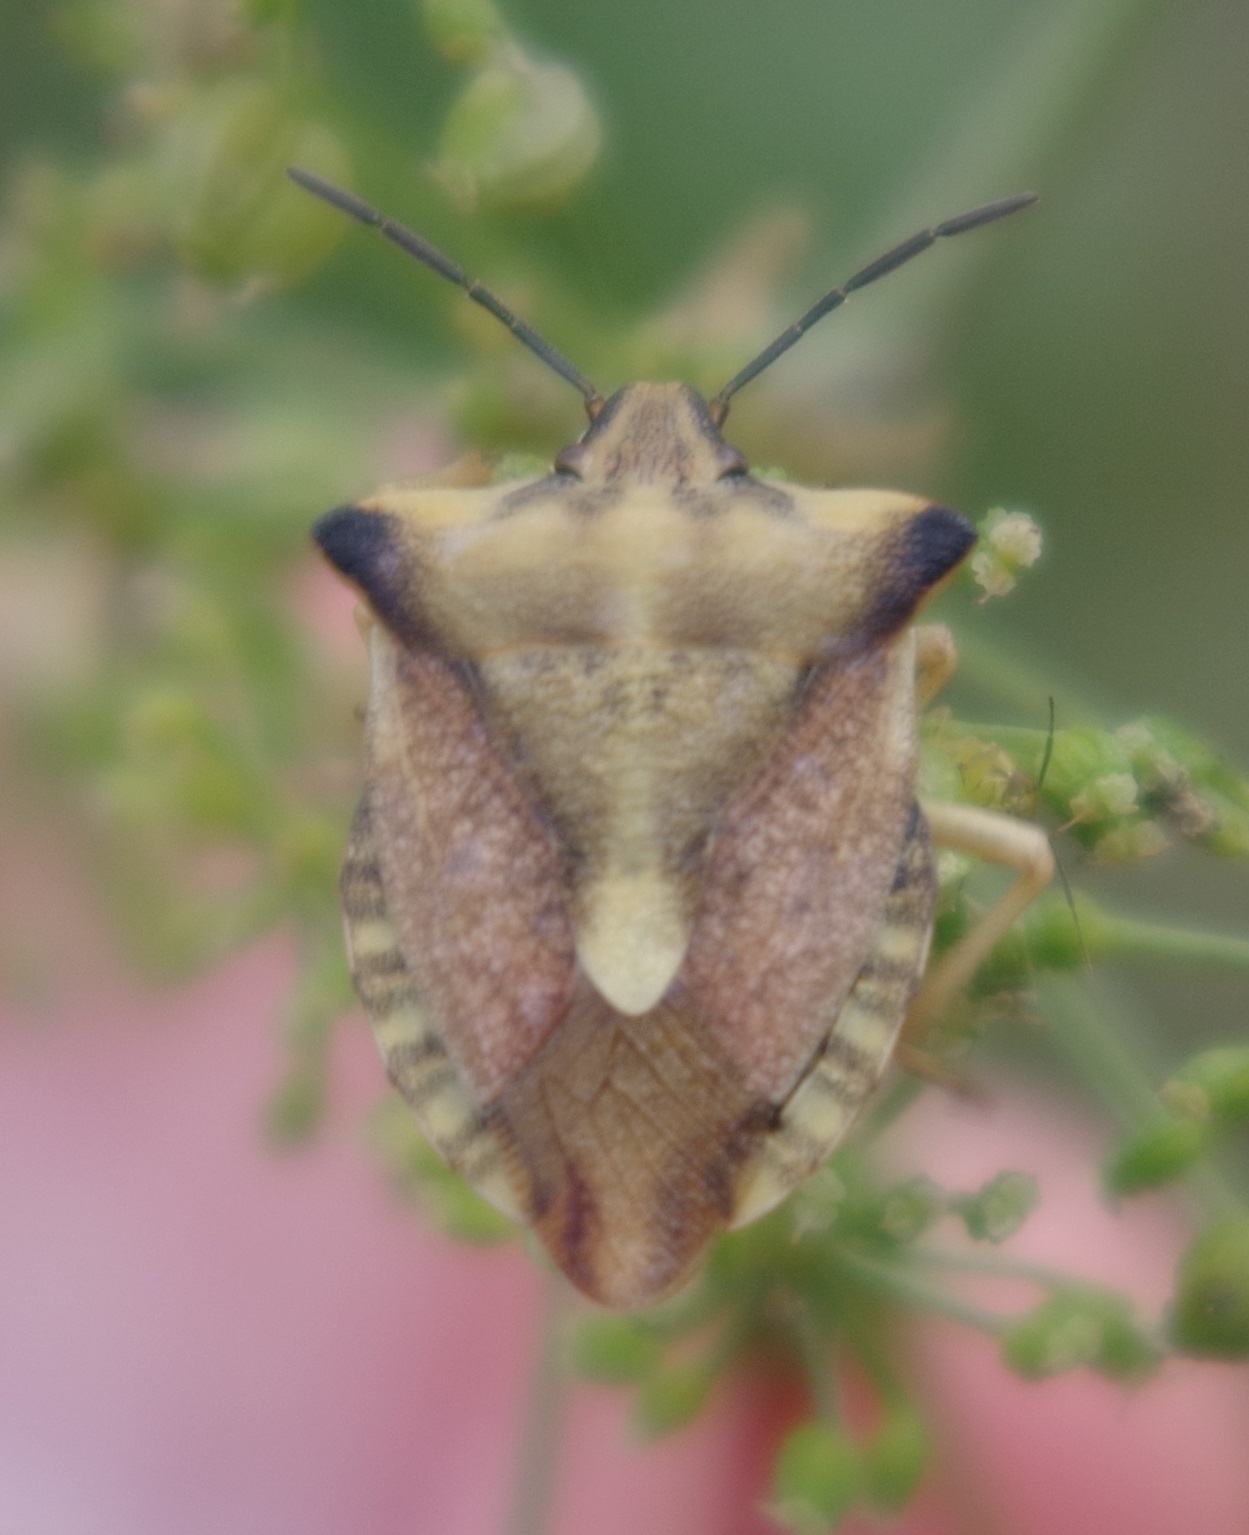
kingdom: Animalia
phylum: Arthropoda
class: Insecta
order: Hemiptera
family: Pentatomidae
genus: Carpocoris
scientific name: Carpocoris fuscispinus
